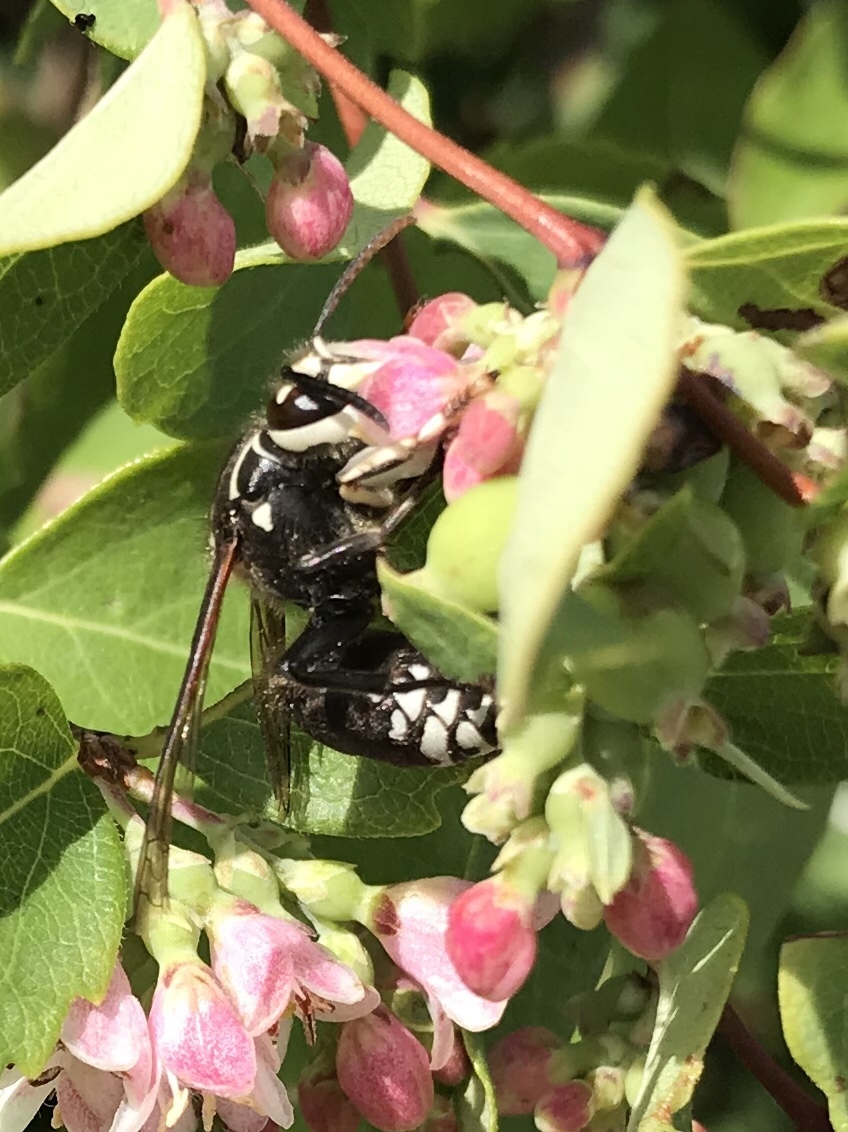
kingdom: Animalia
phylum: Arthropoda
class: Insecta
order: Hymenoptera
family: Vespidae
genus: Dolichovespula
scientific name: Dolichovespula maculata
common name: Bald-faced hornet
